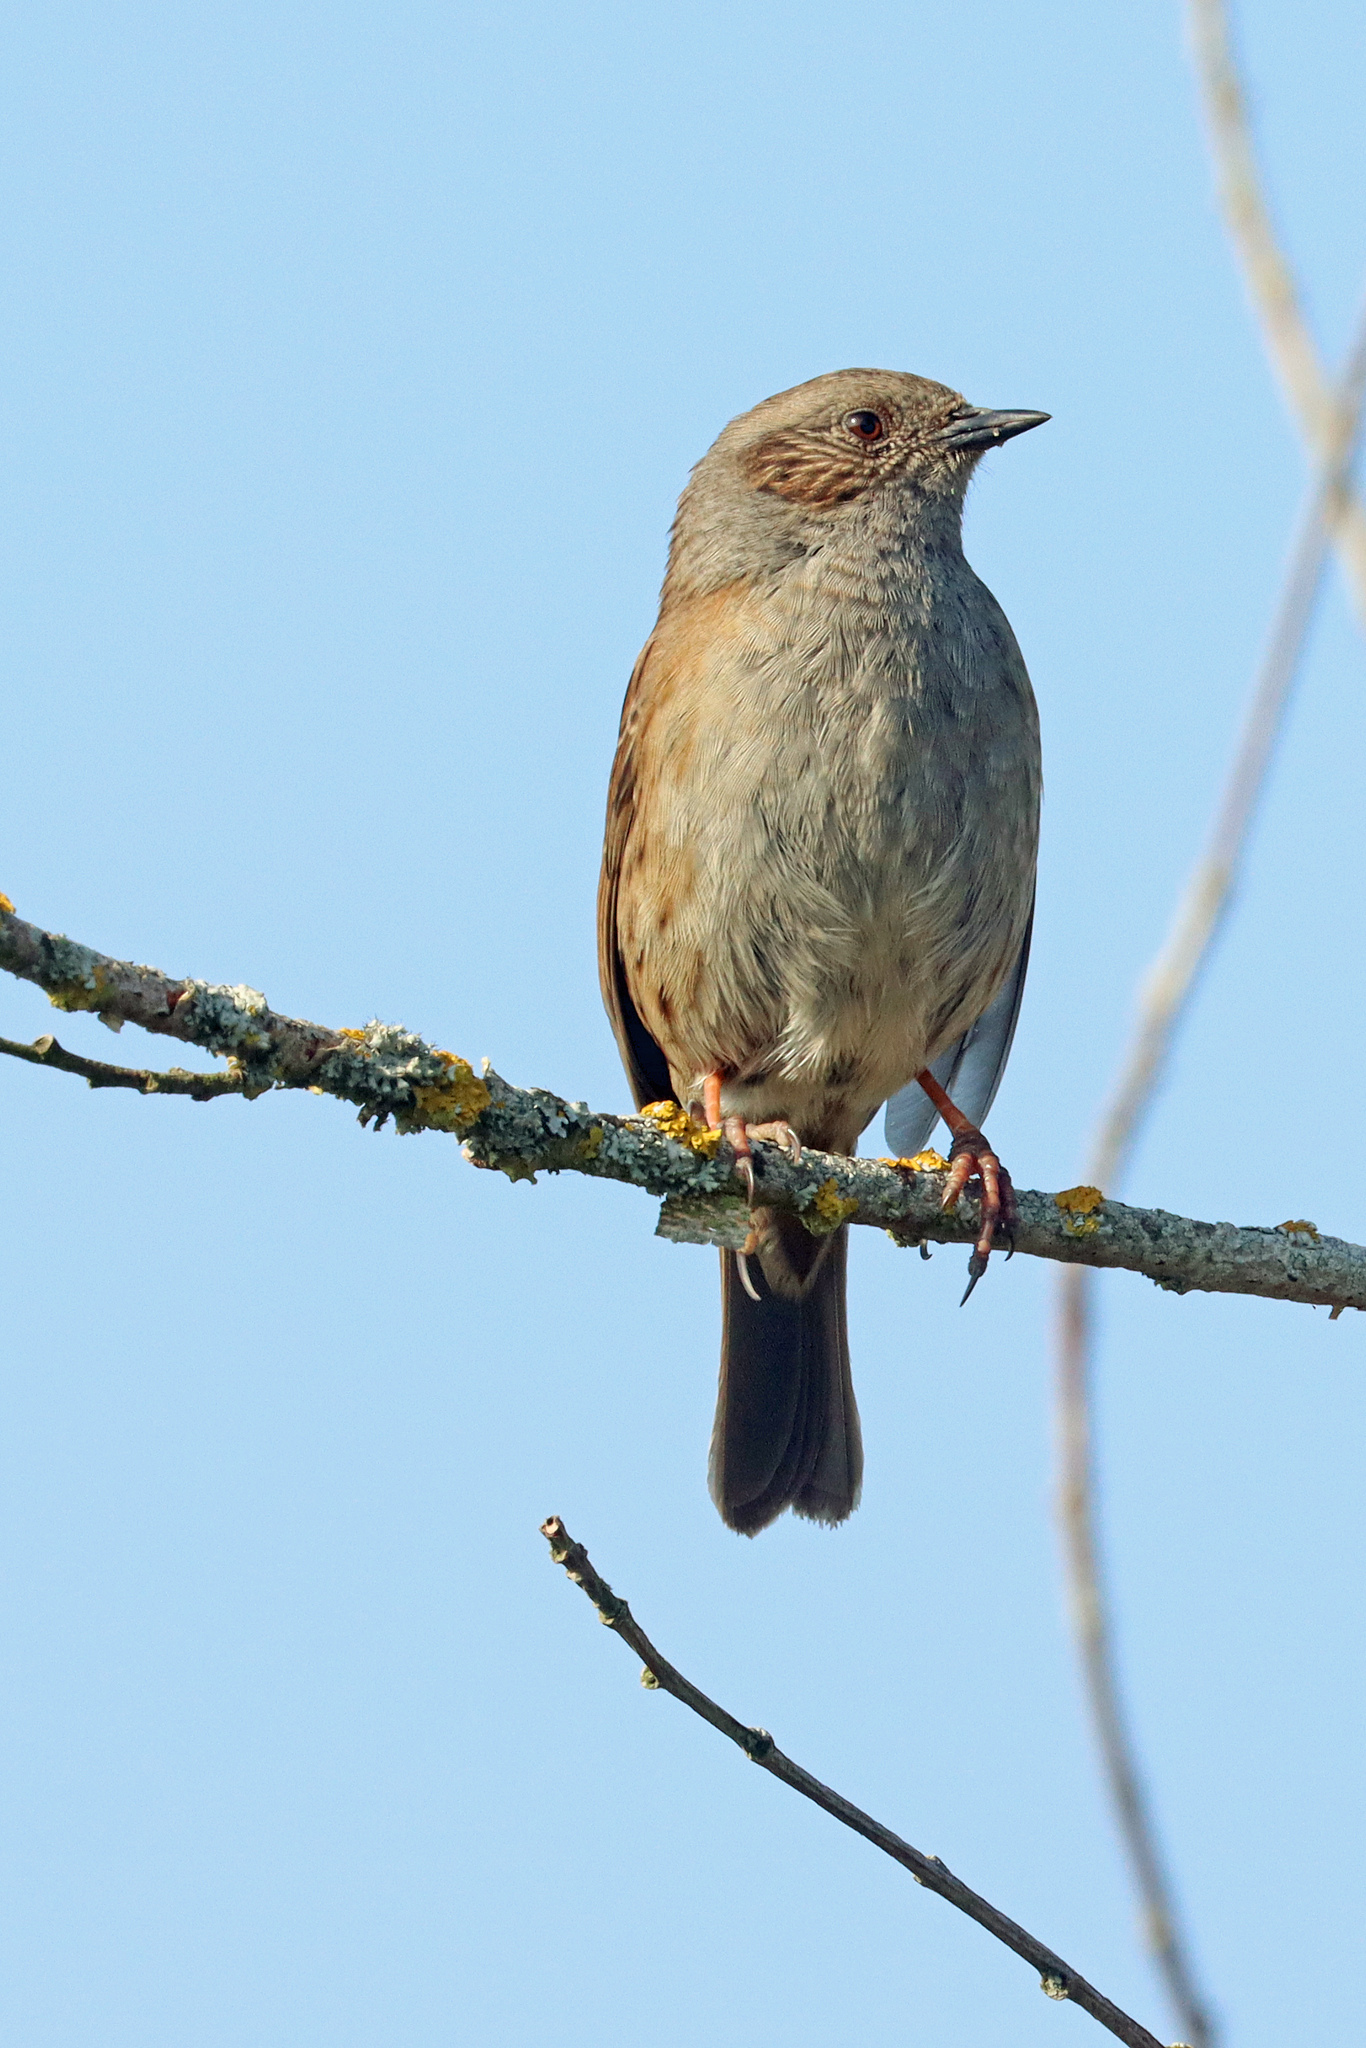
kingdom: Animalia
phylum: Chordata
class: Aves
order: Passeriformes
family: Prunellidae
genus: Prunella
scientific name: Prunella modularis
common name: Dunnock
